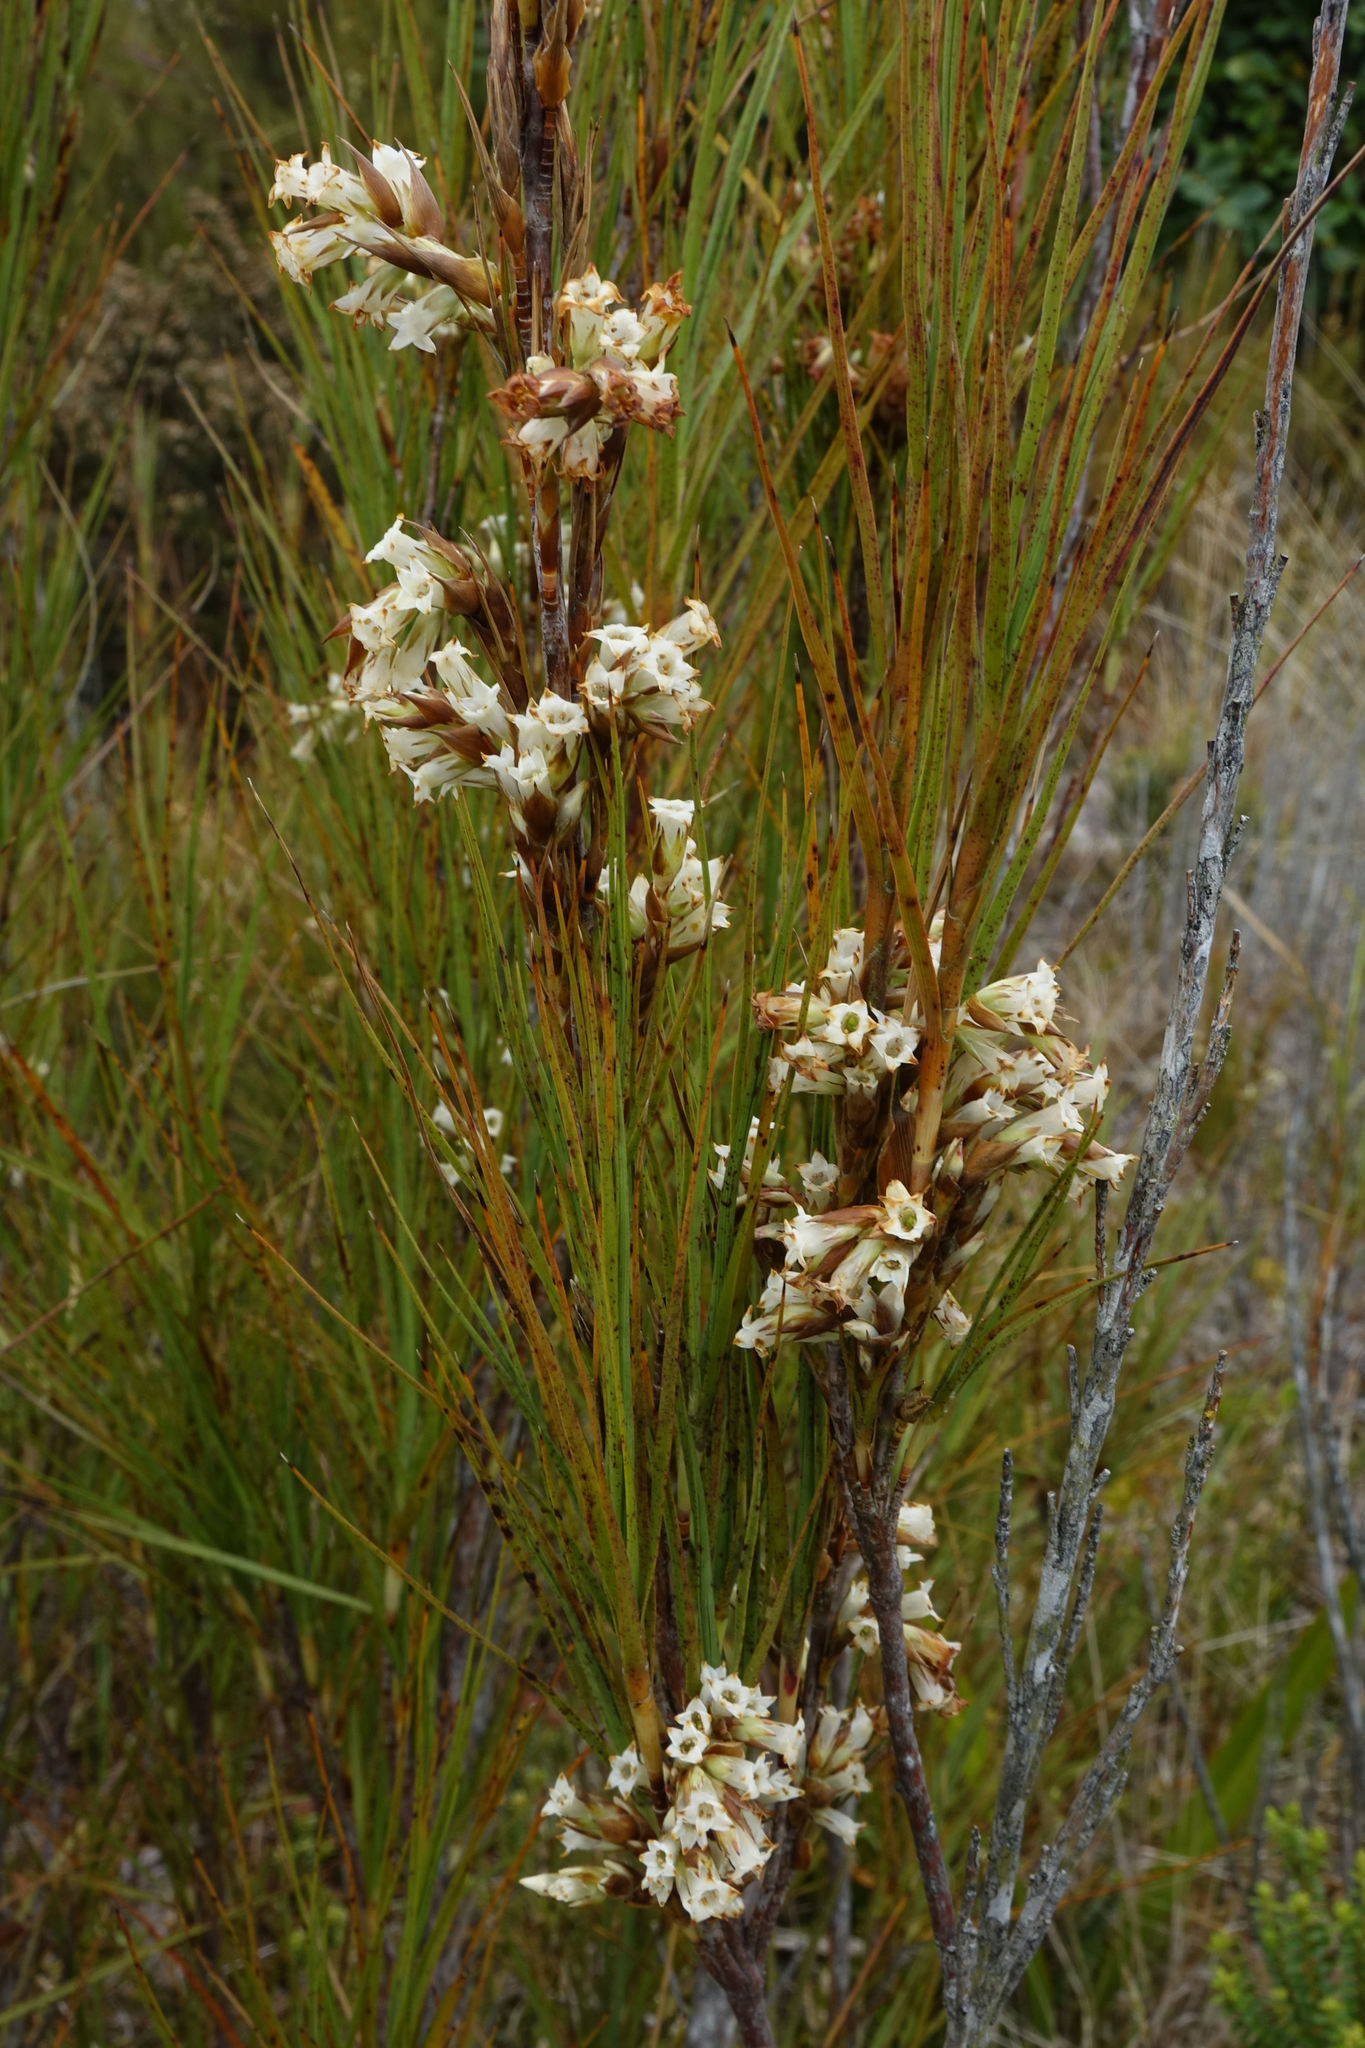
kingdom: Plantae
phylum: Tracheophyta
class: Magnoliopsida
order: Ericales
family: Ericaceae
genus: Dracophyllum
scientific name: Dracophyllum longifolium
